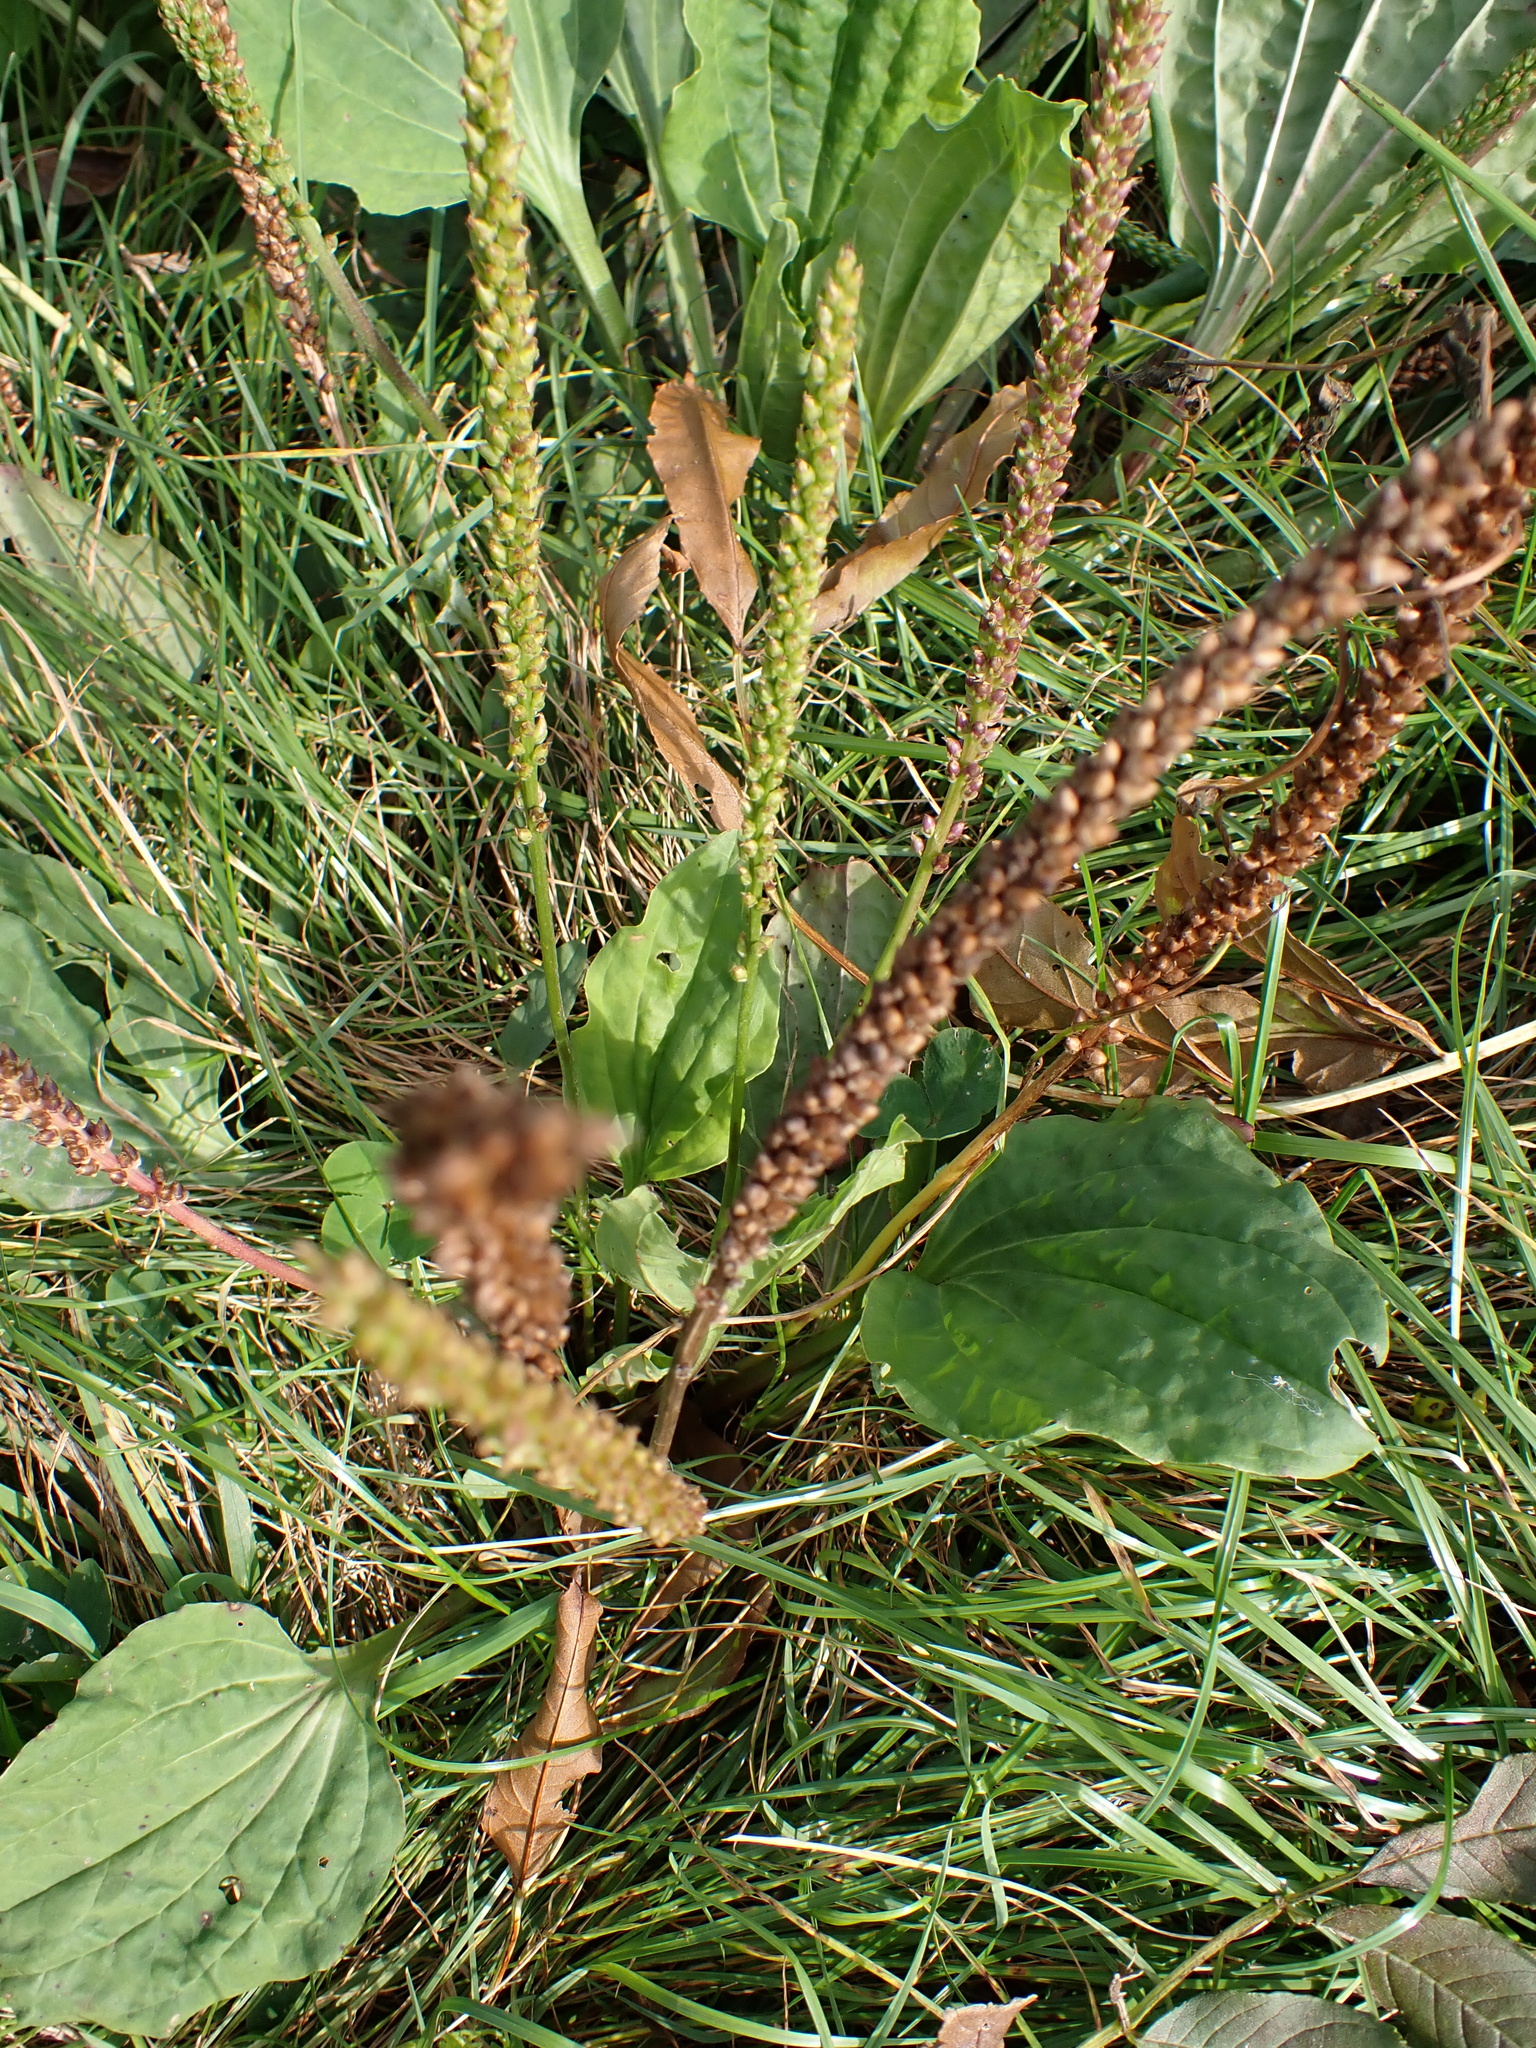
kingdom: Plantae
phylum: Tracheophyta
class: Magnoliopsida
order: Lamiales
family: Plantaginaceae
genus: Plantago
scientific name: Plantago major
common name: Common plantain
